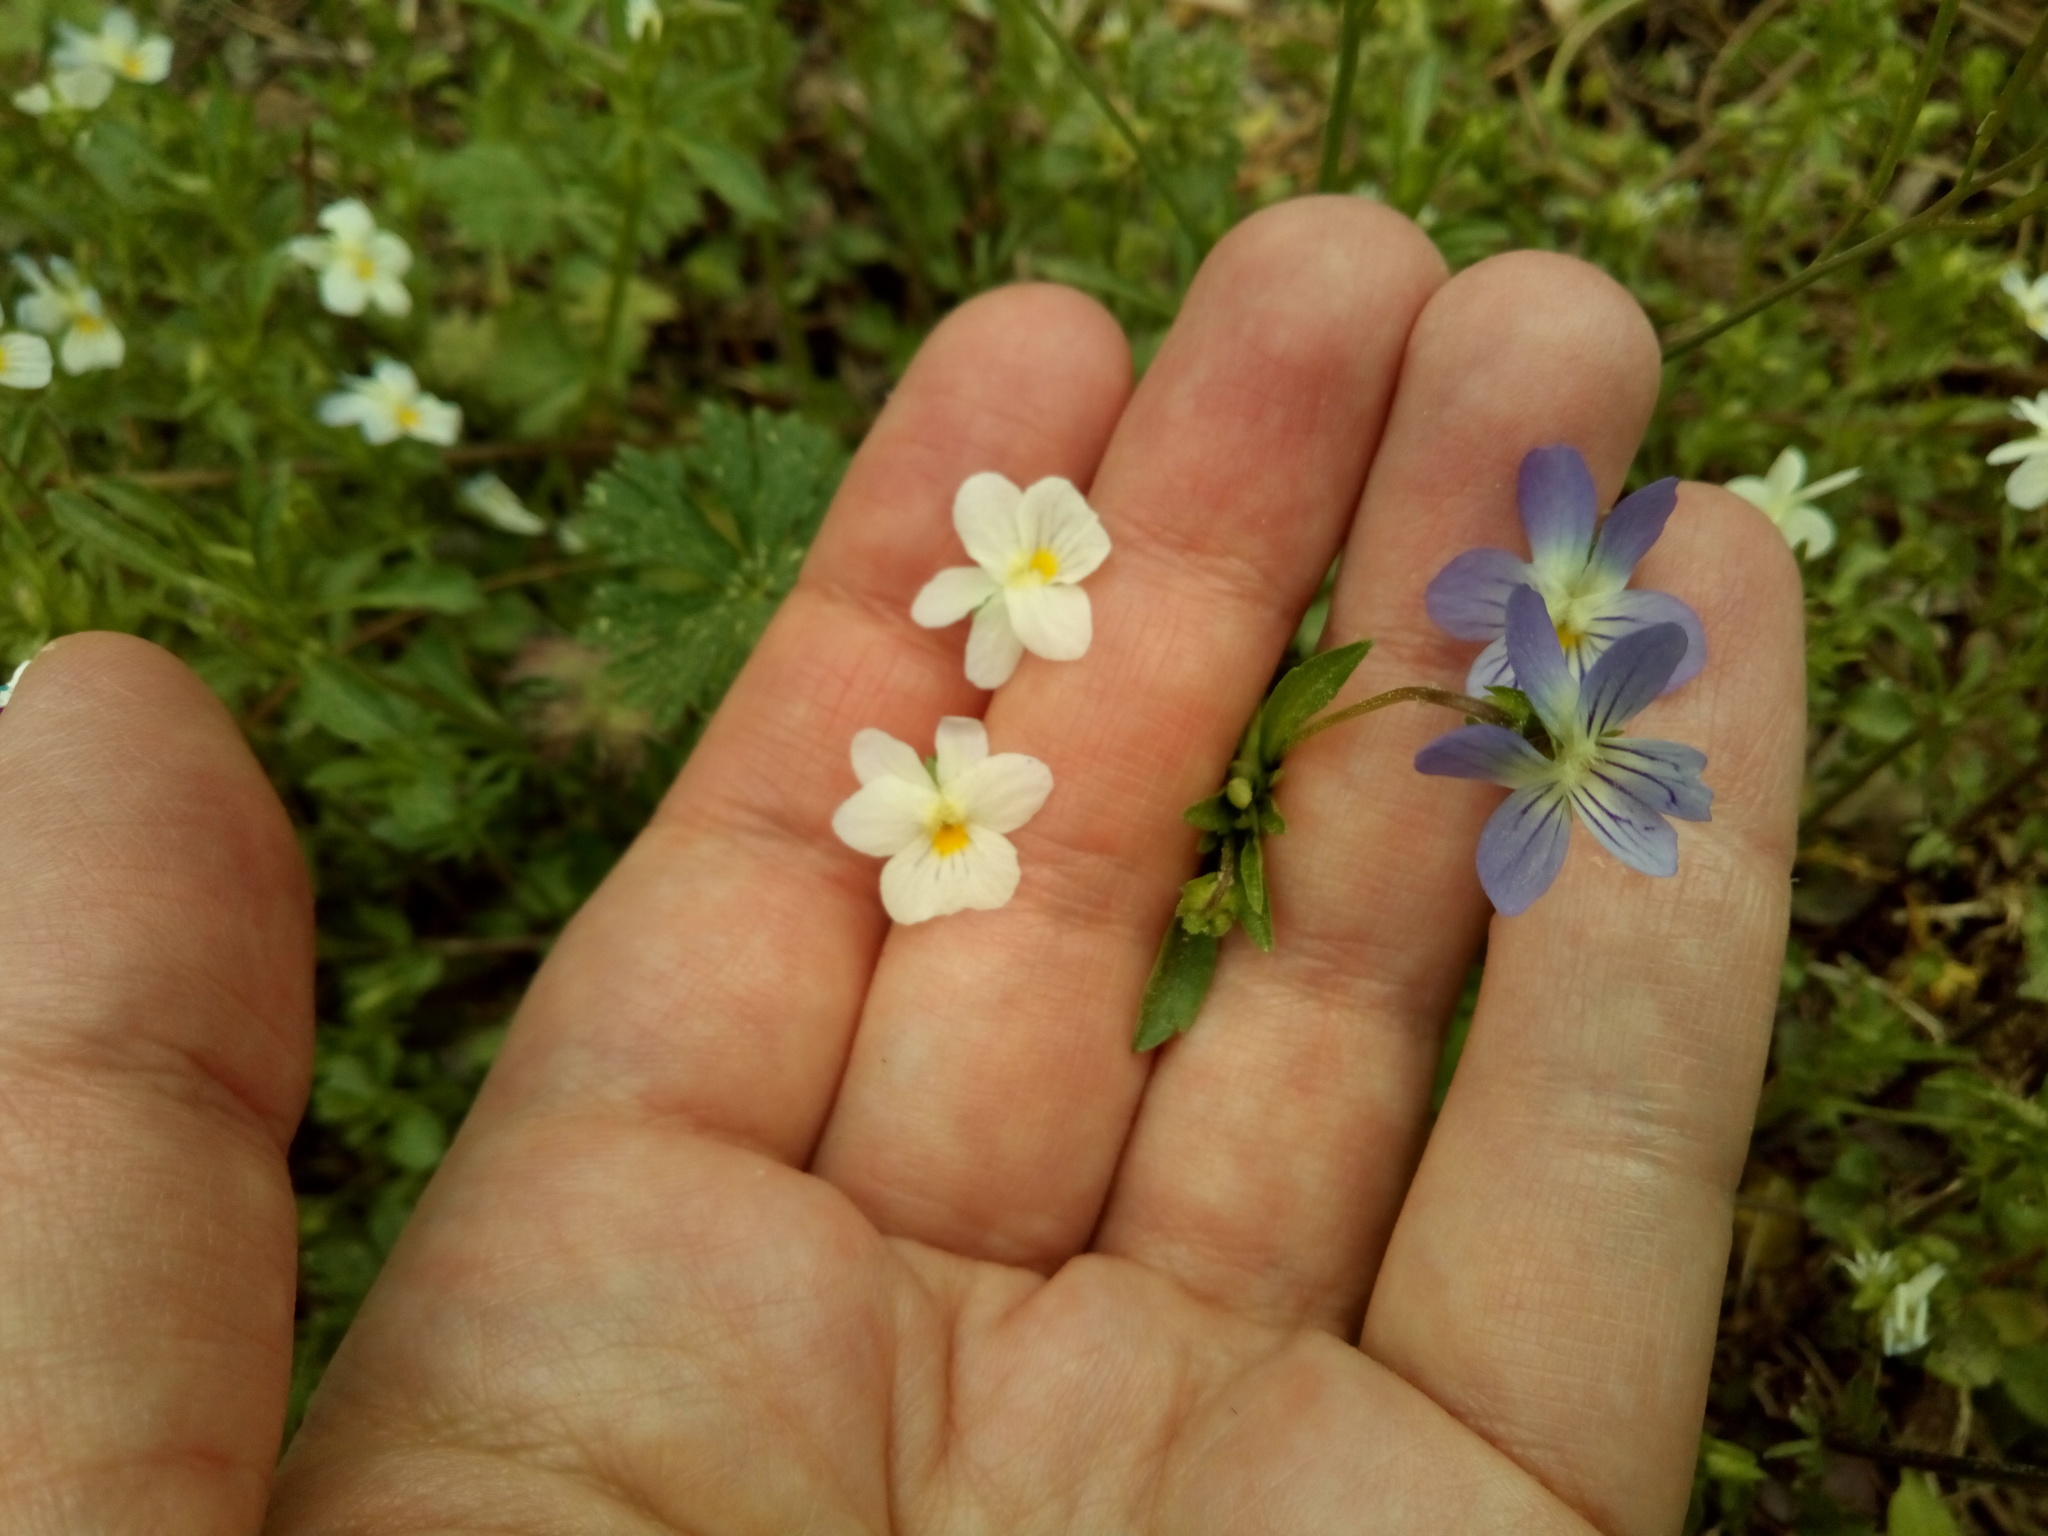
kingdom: Plantae
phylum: Tracheophyta
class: Magnoliopsida
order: Malpighiales
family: Violaceae
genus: Viola
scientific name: Viola rafinesquei
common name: American field pansy
